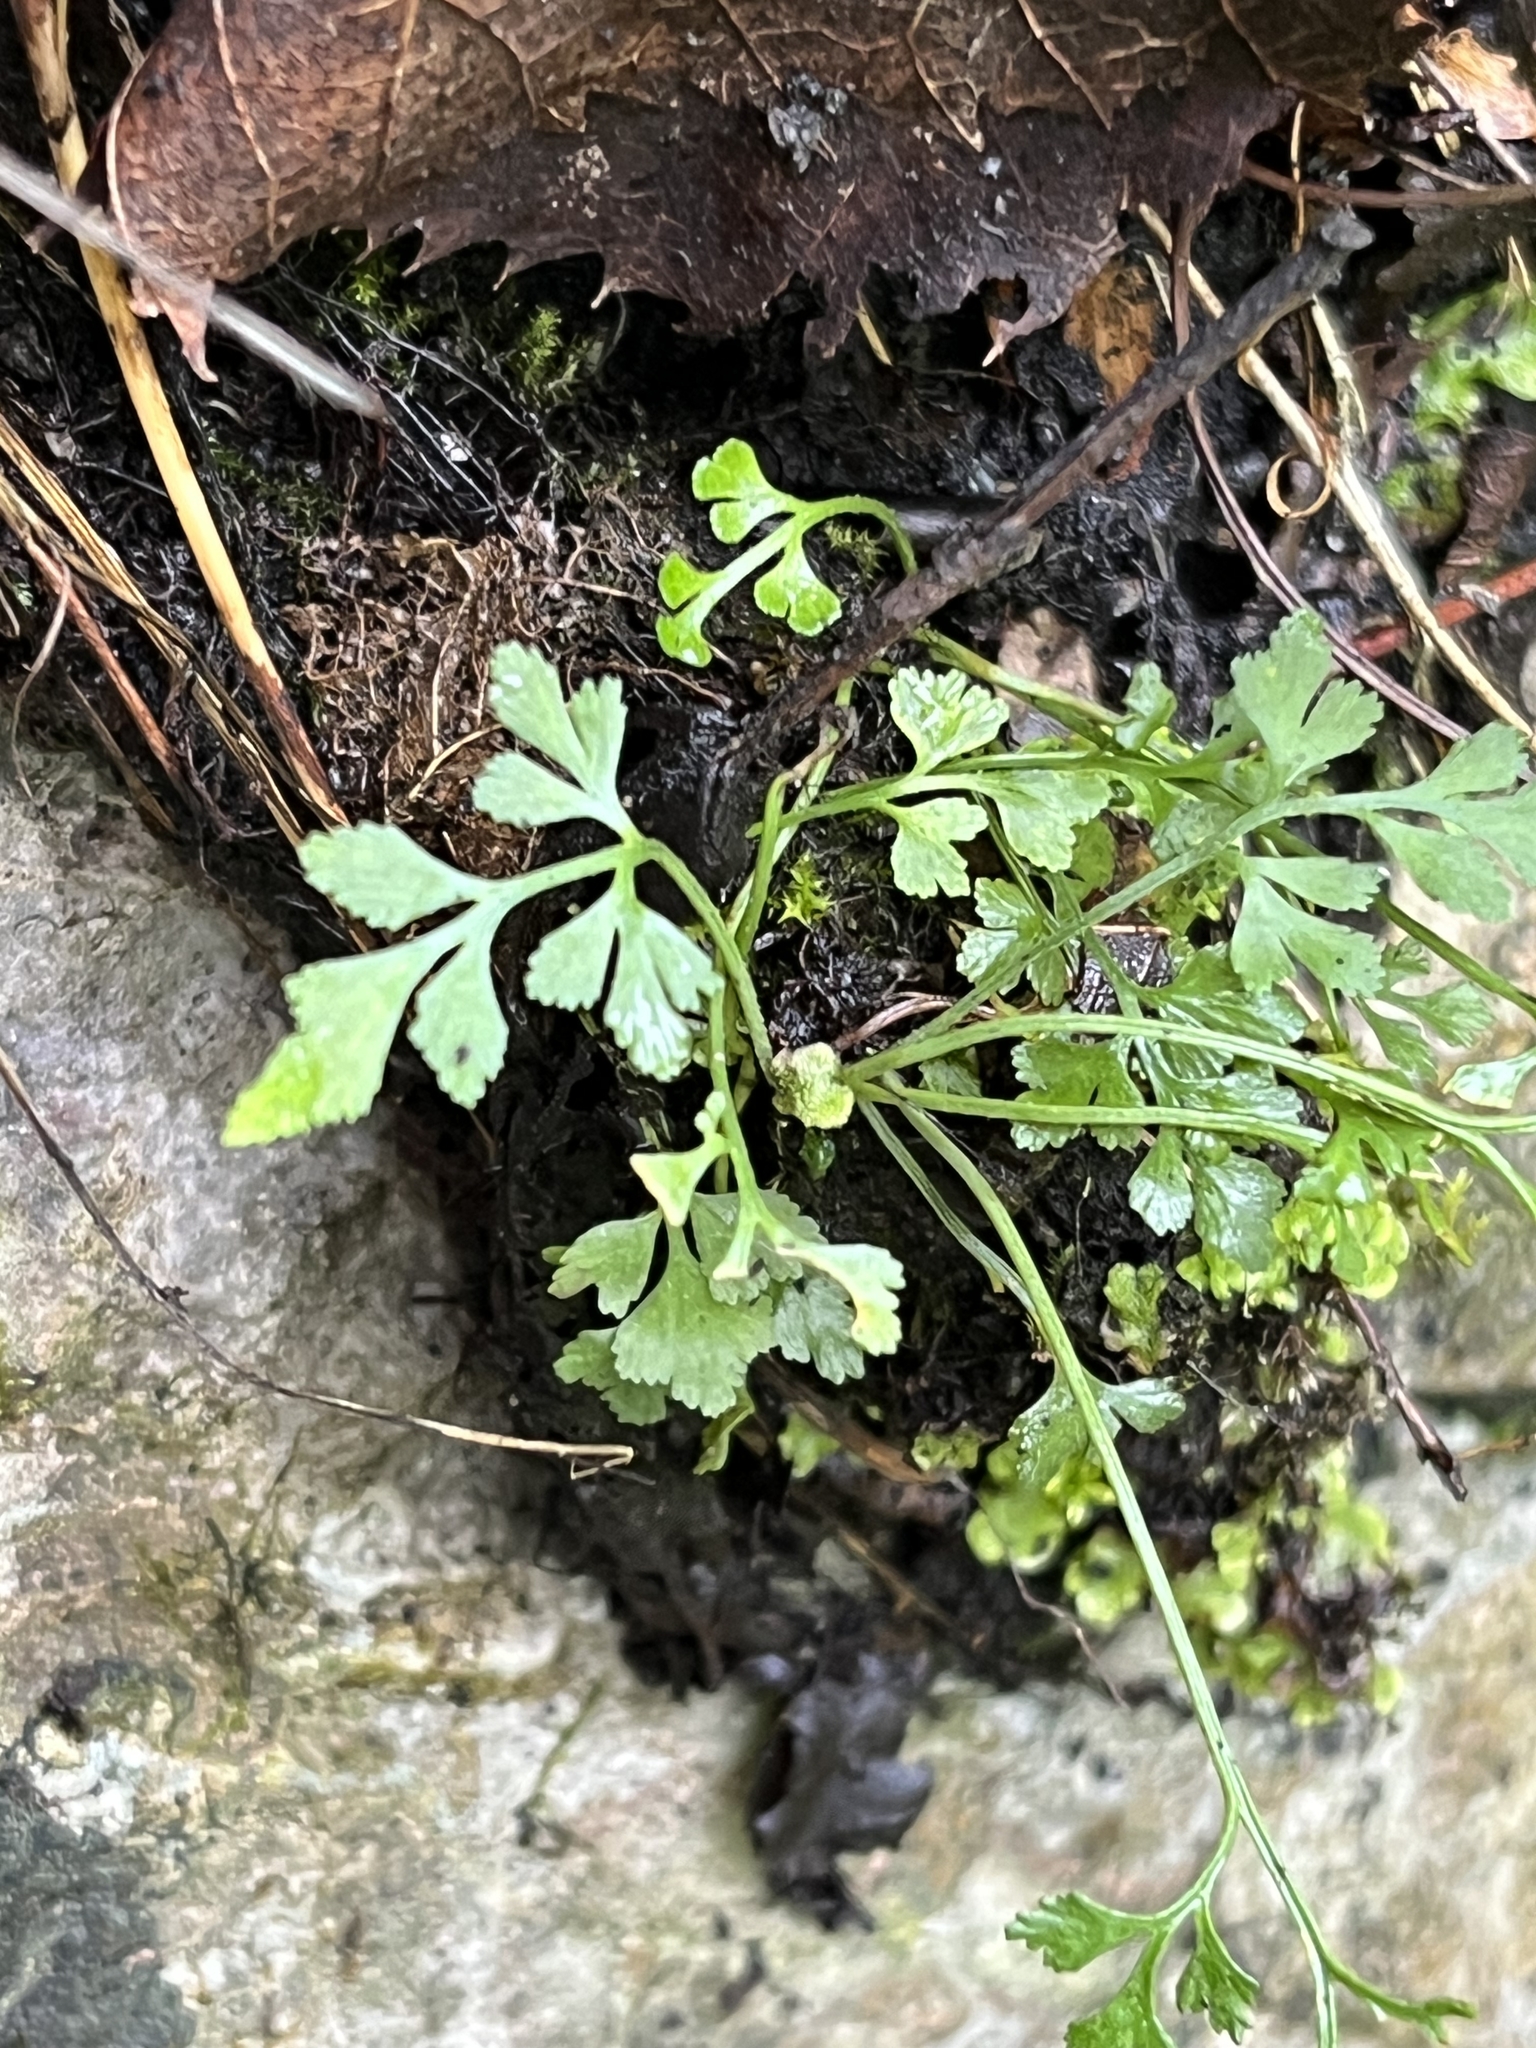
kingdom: Plantae
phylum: Tracheophyta
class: Polypodiopsida
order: Polypodiales
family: Aspleniaceae
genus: Asplenium
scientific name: Asplenium ruta-muraria
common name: Wall-rue
